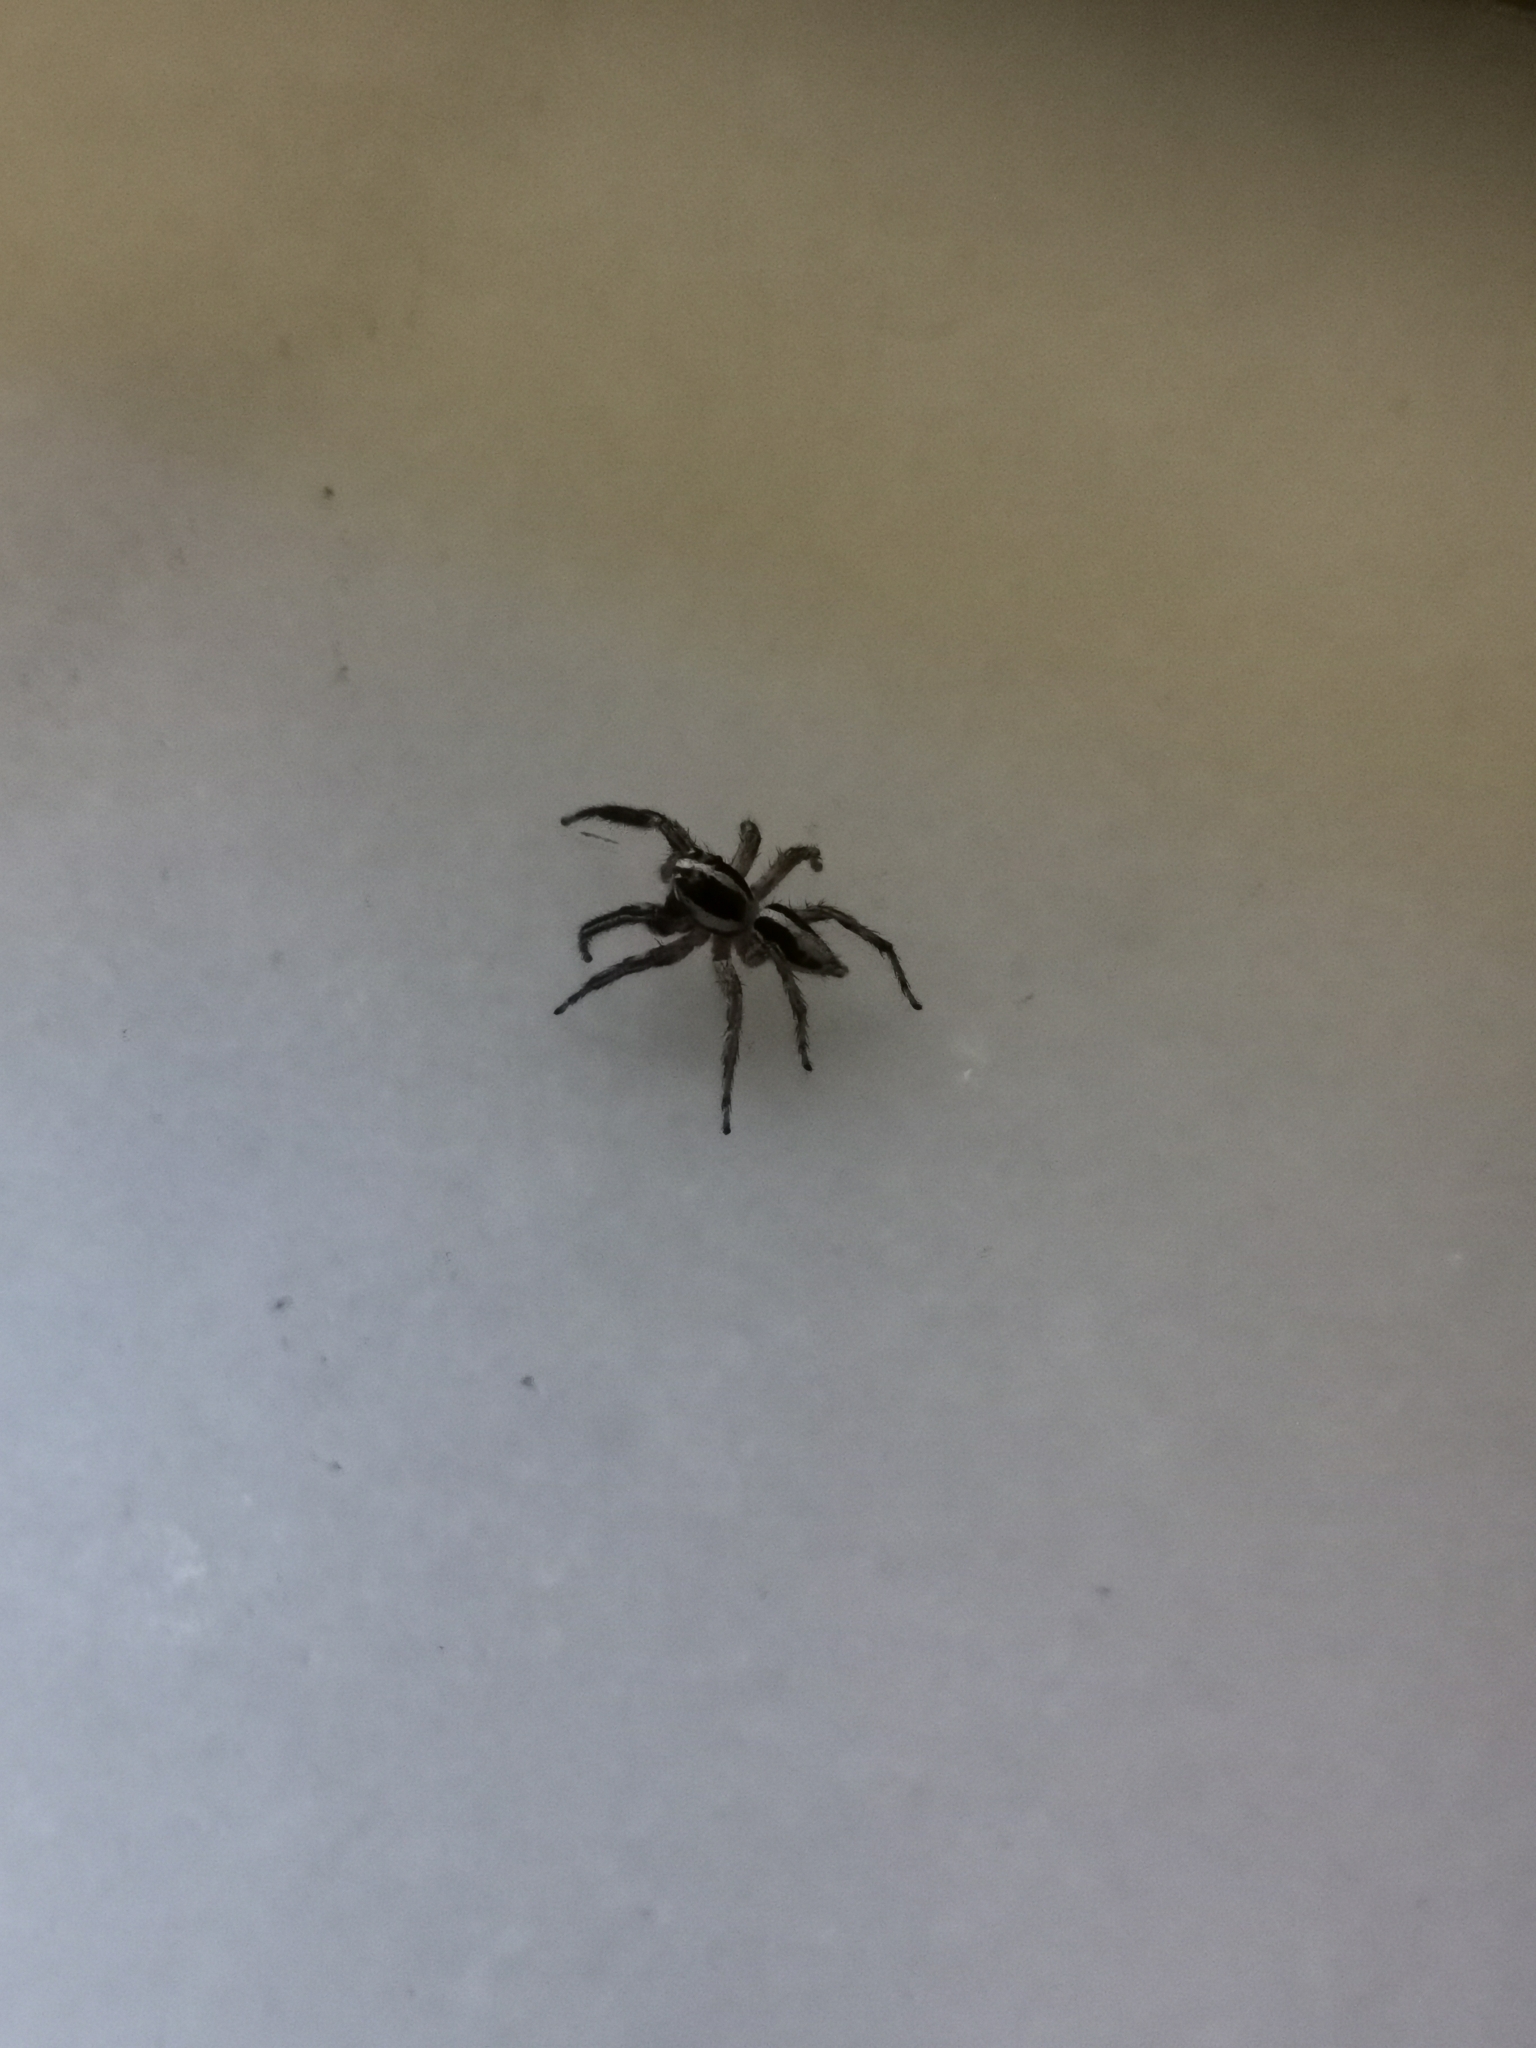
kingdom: Animalia
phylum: Arthropoda
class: Arachnida
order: Araneae
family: Salticidae
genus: Plexippus
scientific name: Plexippus paykulli
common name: Pantropical jumper
